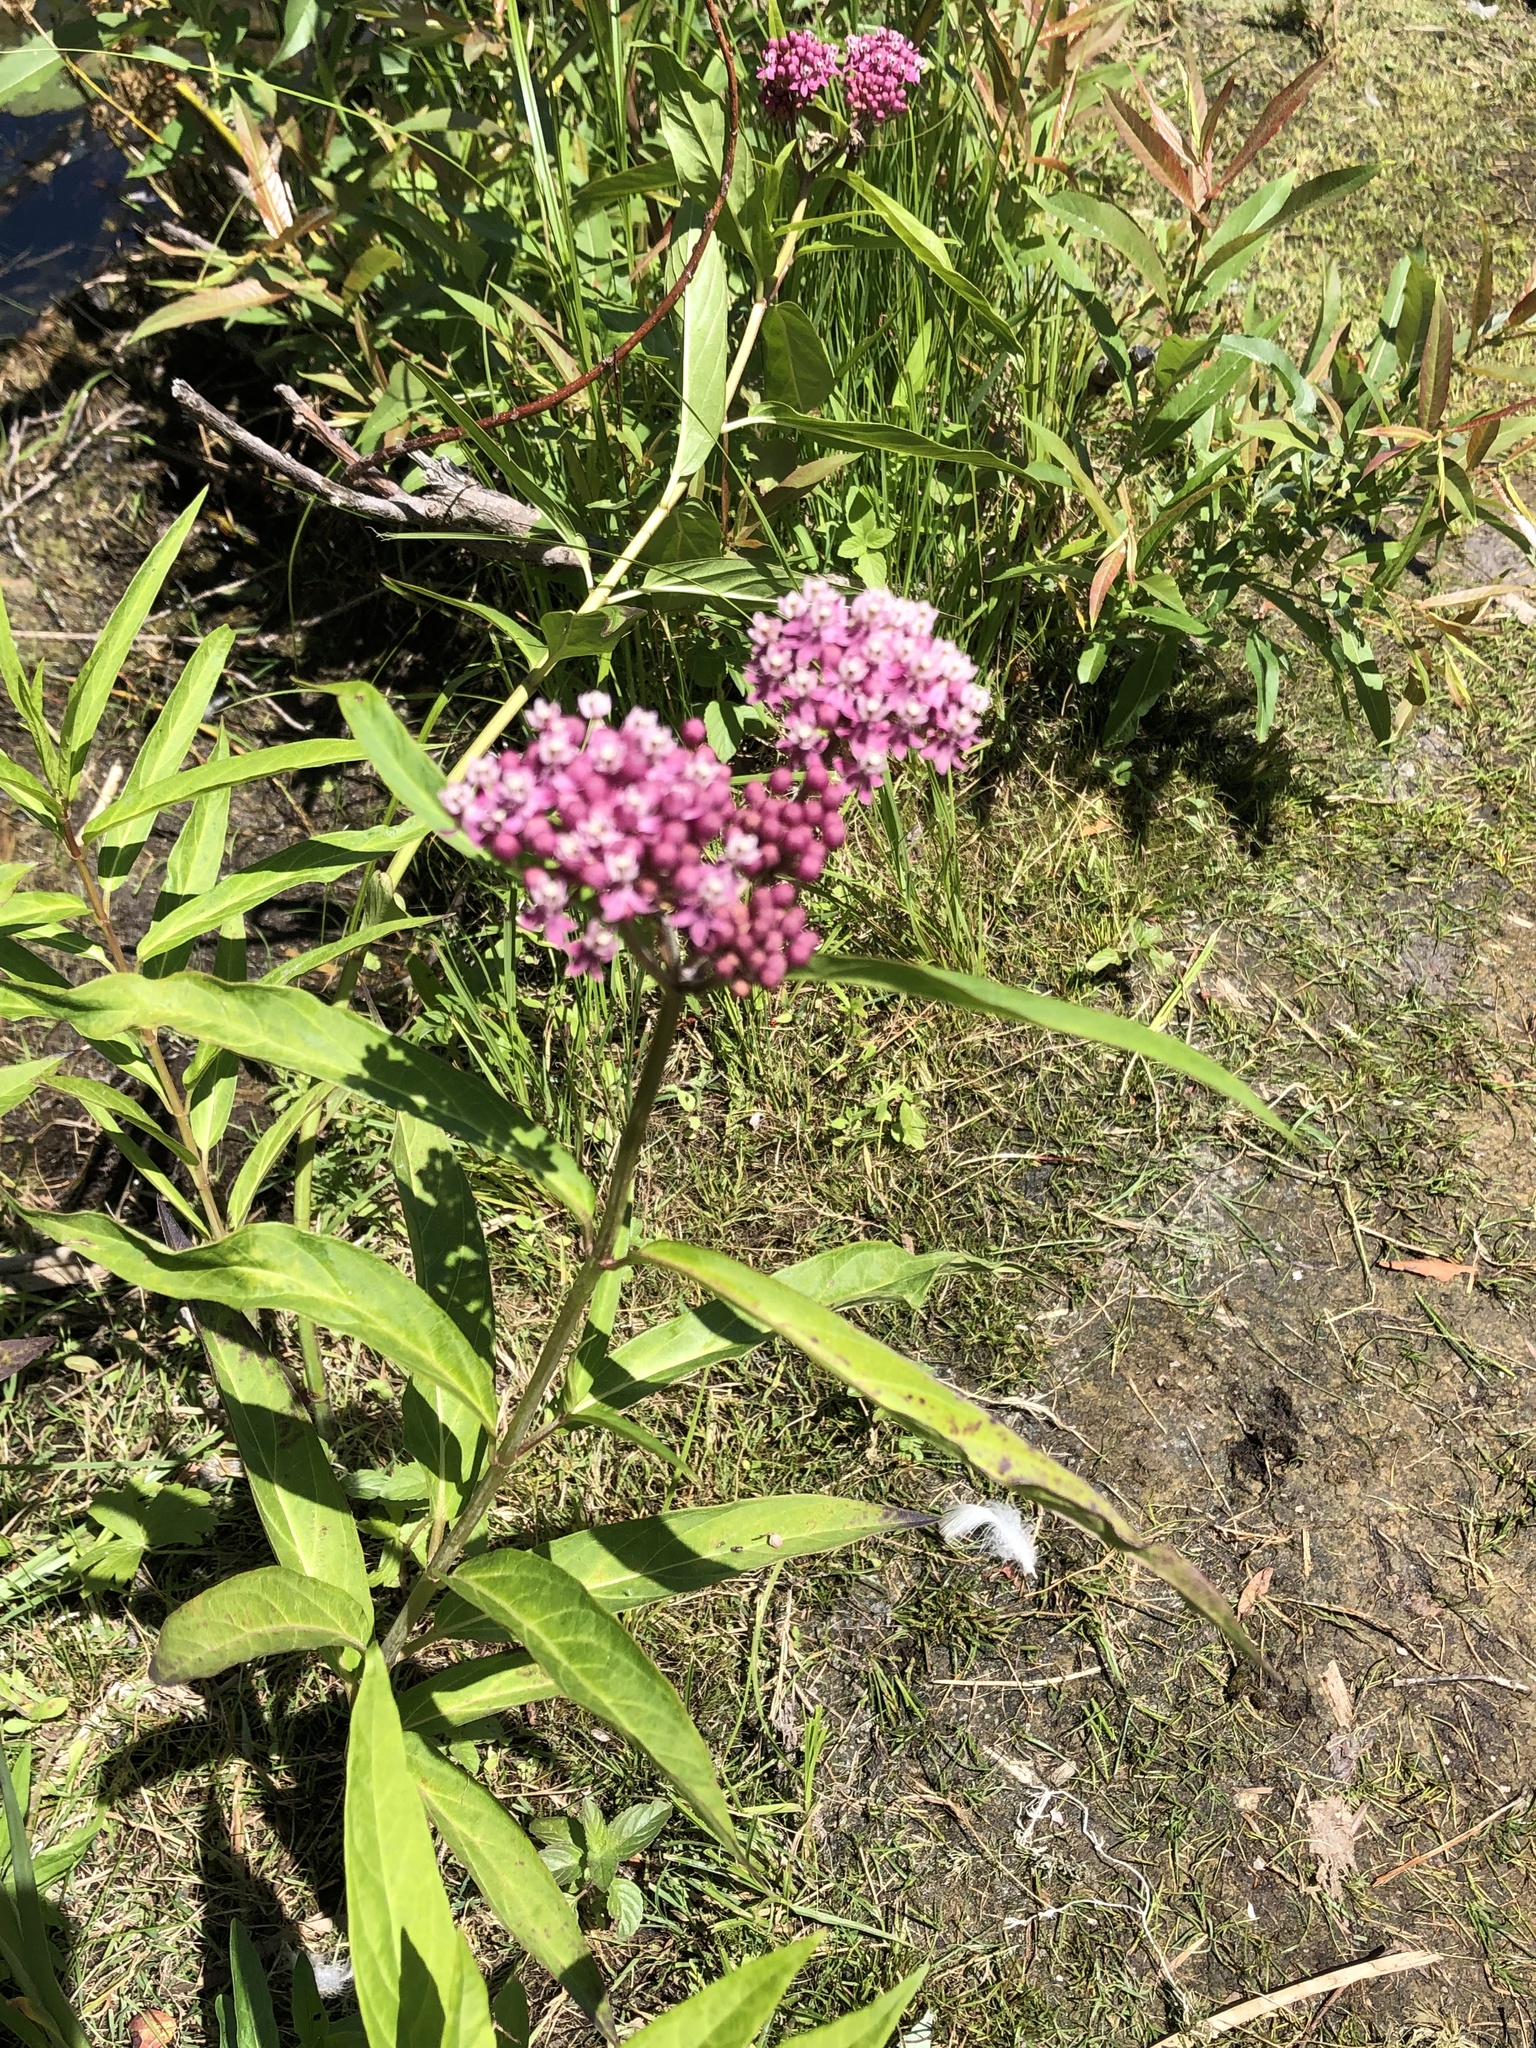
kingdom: Plantae
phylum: Tracheophyta
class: Magnoliopsida
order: Gentianales
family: Apocynaceae
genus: Asclepias
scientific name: Asclepias incarnata
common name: Swamp milkweed
